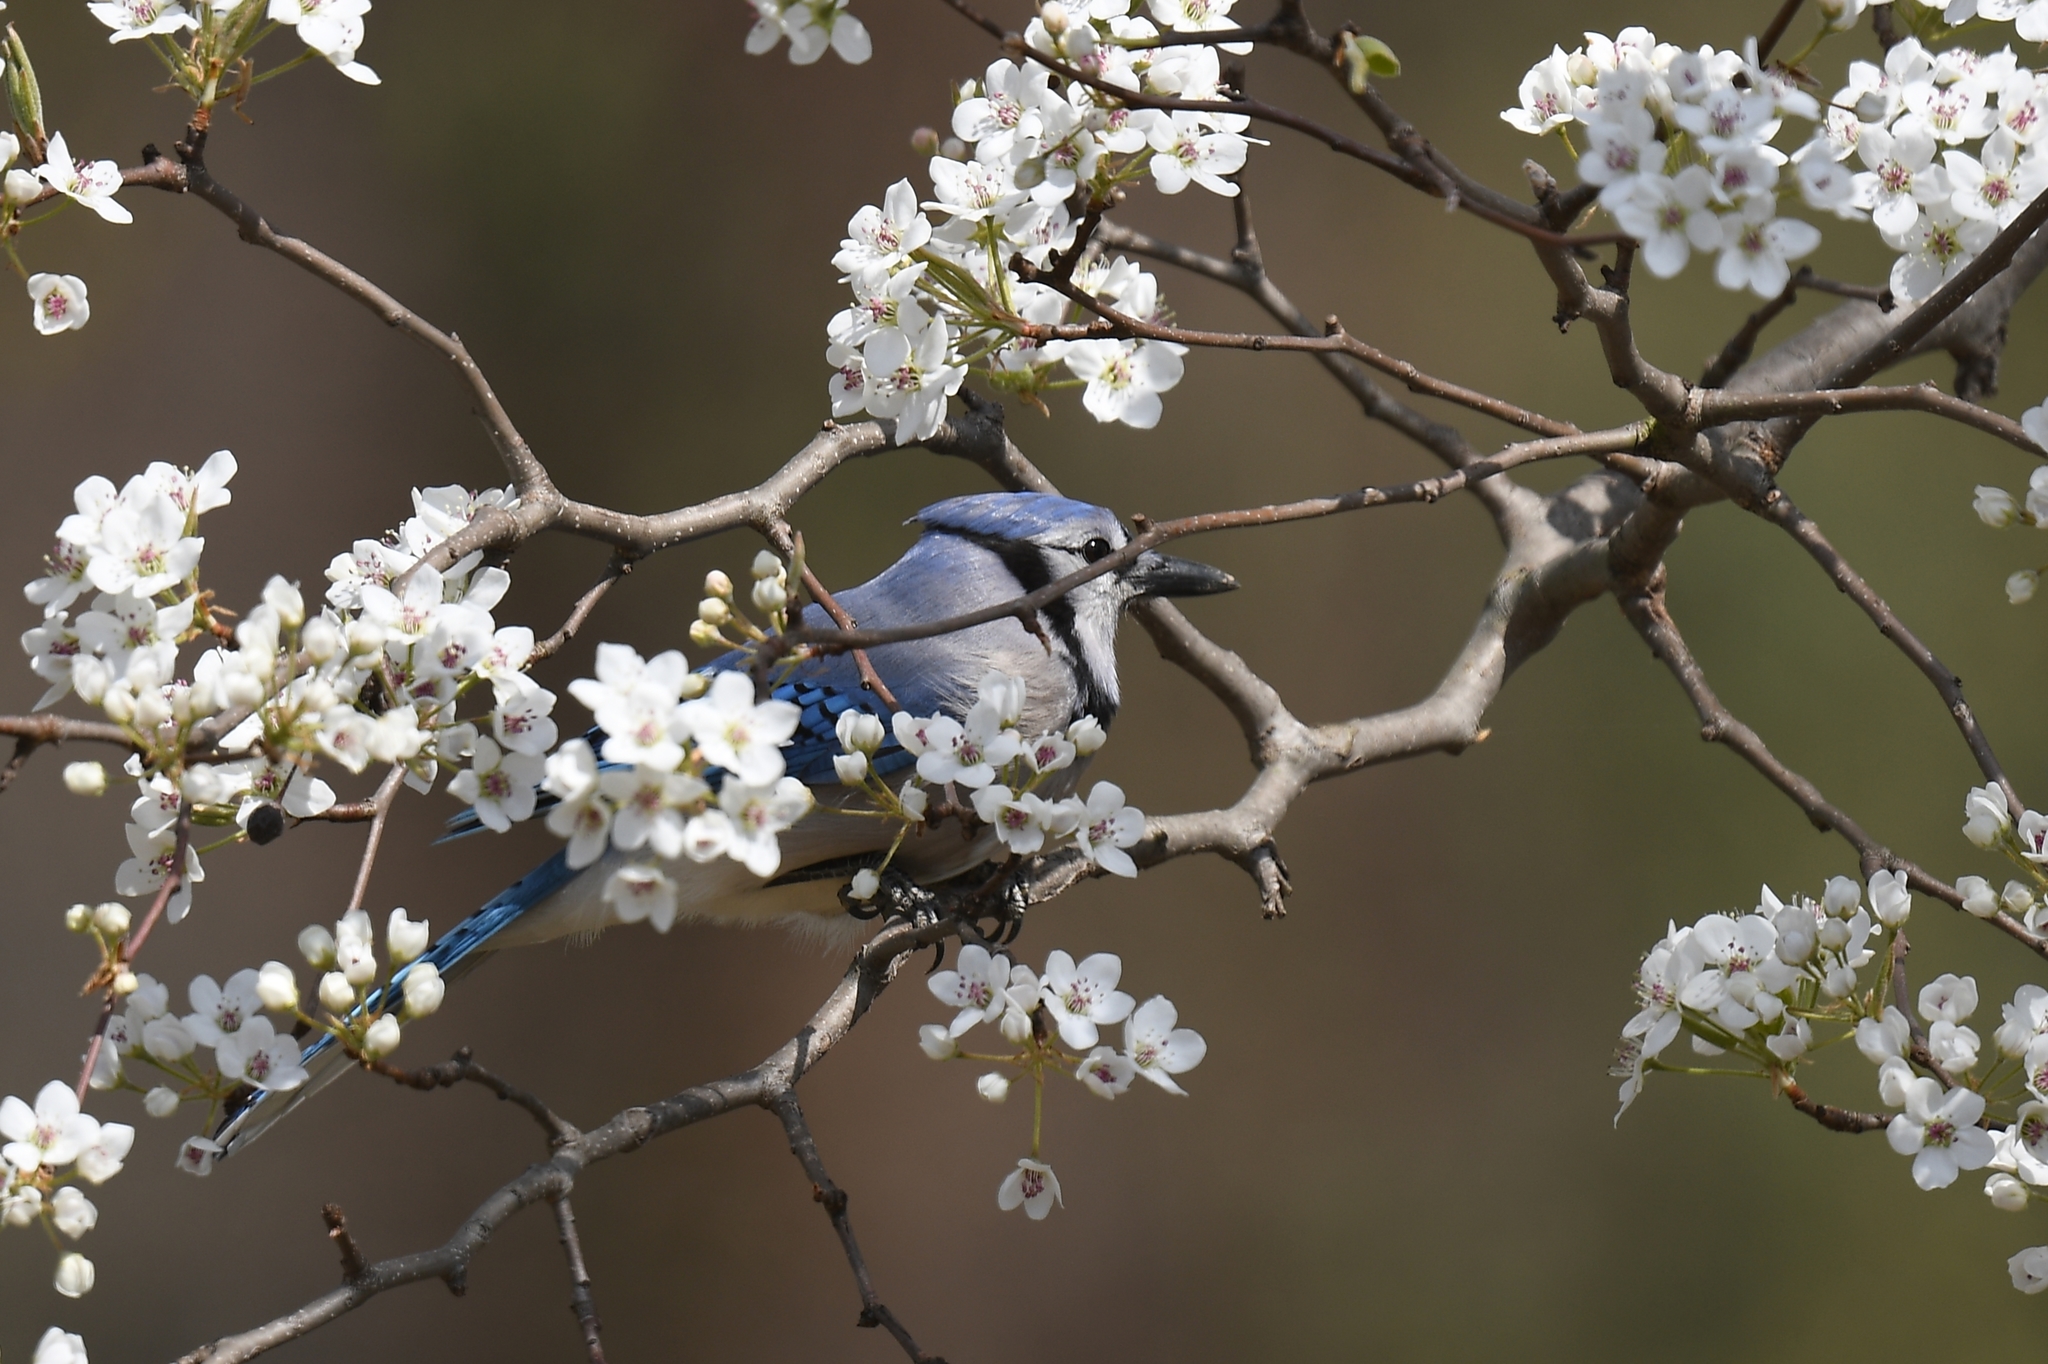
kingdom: Animalia
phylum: Chordata
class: Aves
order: Passeriformes
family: Corvidae
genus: Cyanocitta
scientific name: Cyanocitta cristata
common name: Blue jay
